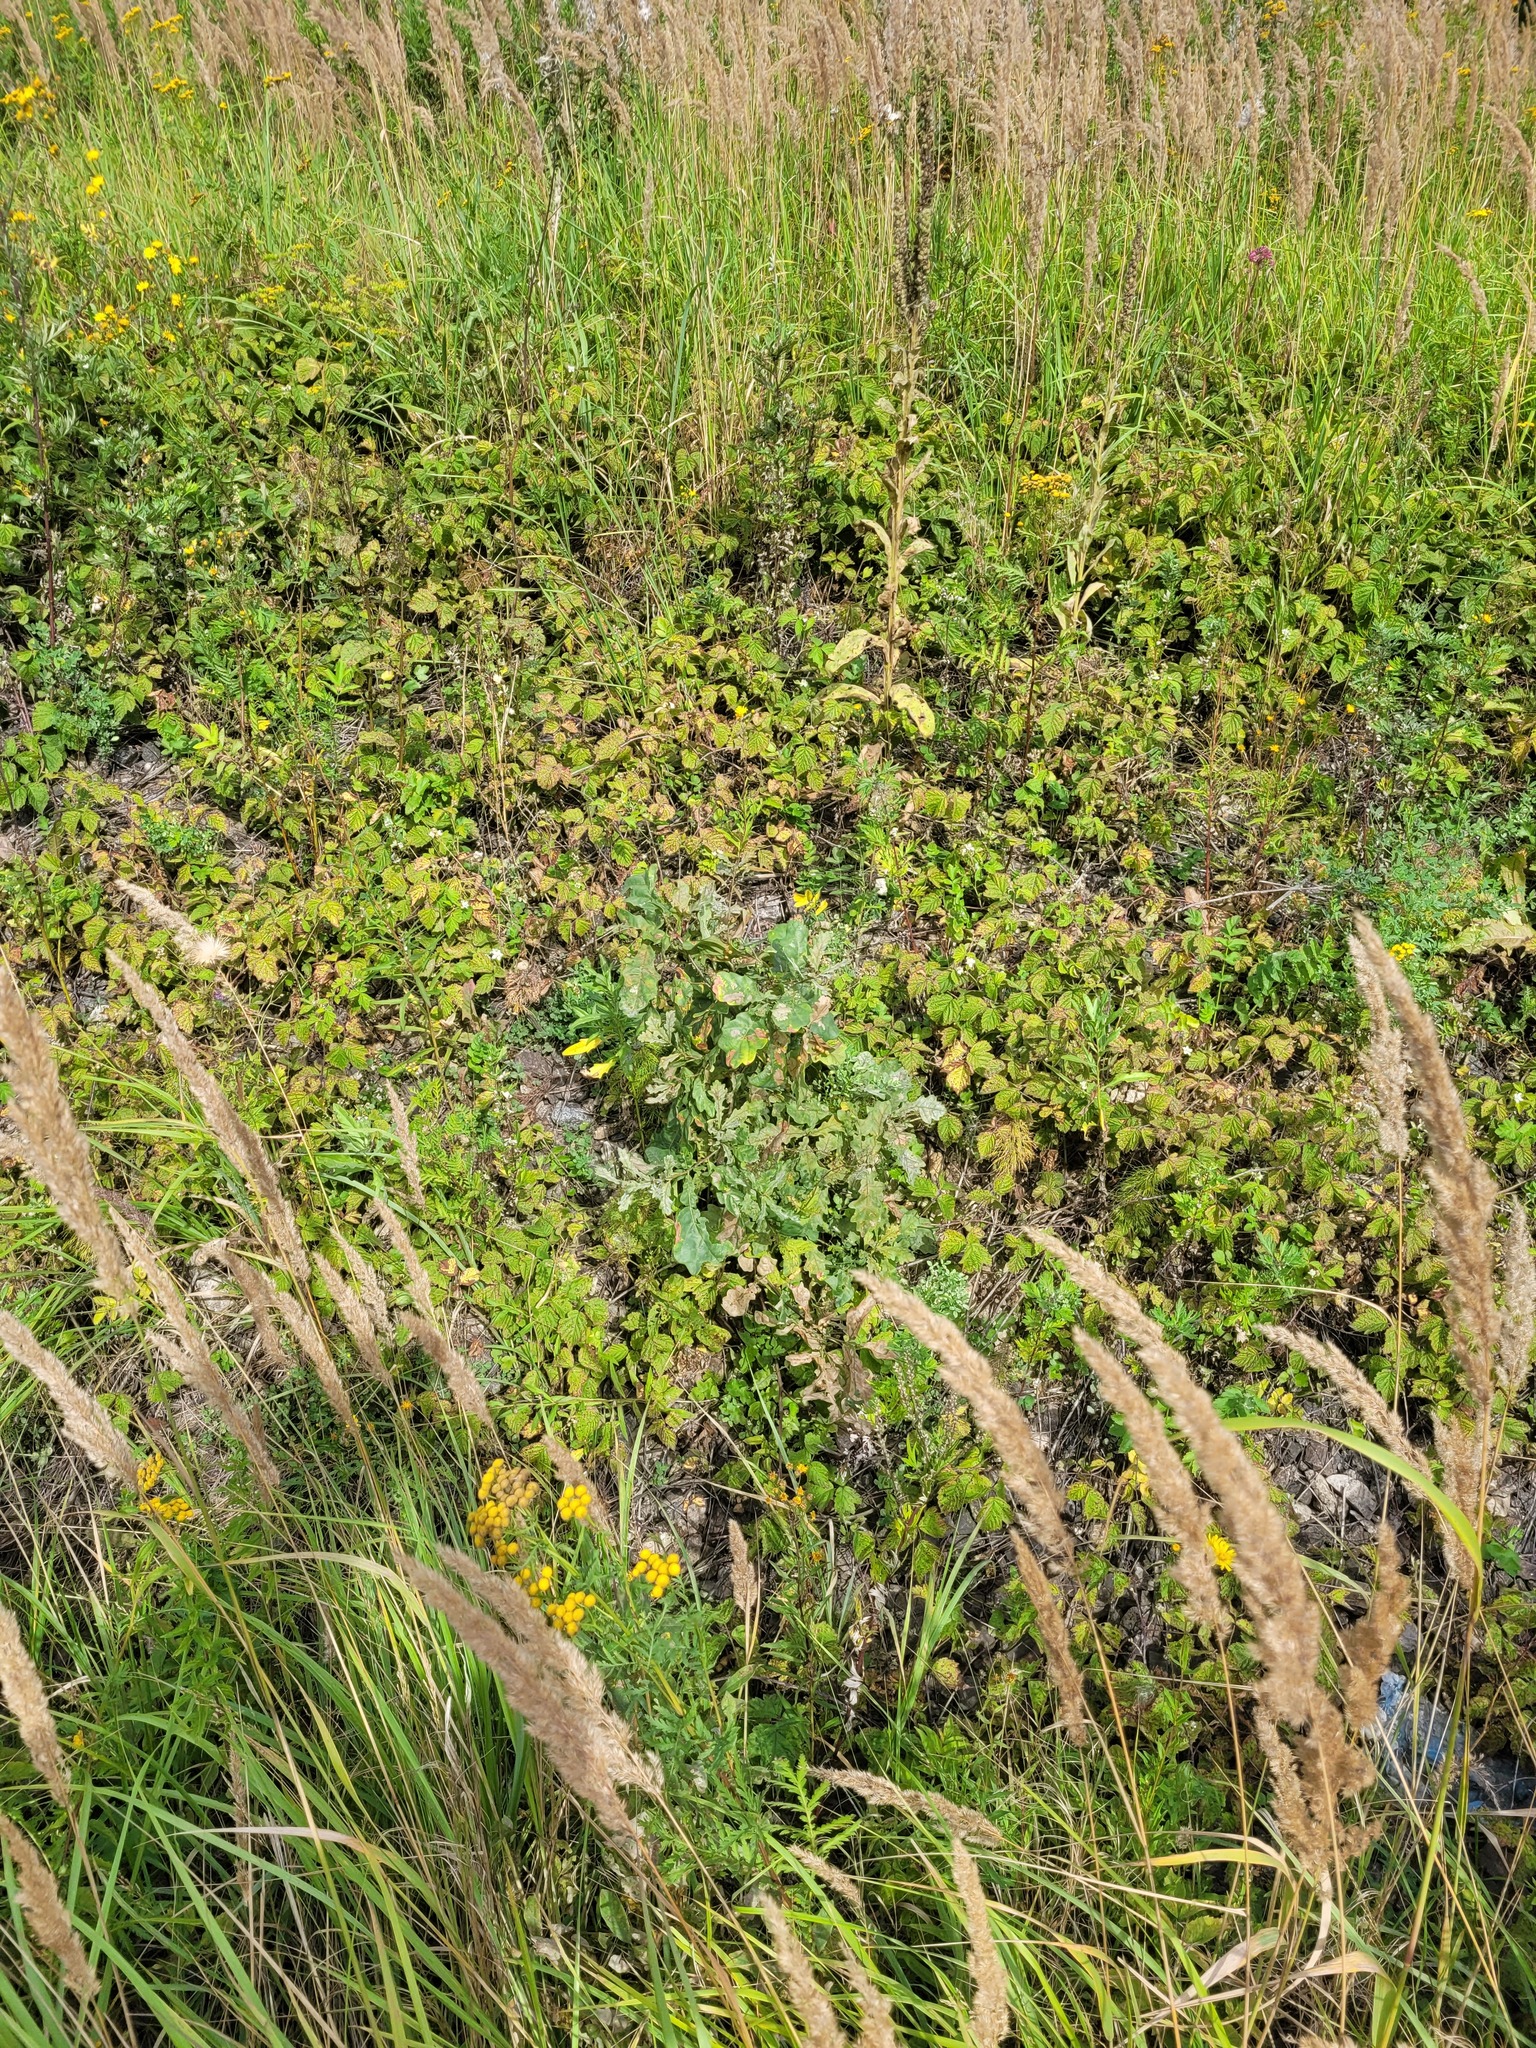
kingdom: Plantae
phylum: Tracheophyta
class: Magnoliopsida
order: Fagales
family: Fagaceae
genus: Quercus
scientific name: Quercus robur
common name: Pedunculate oak
